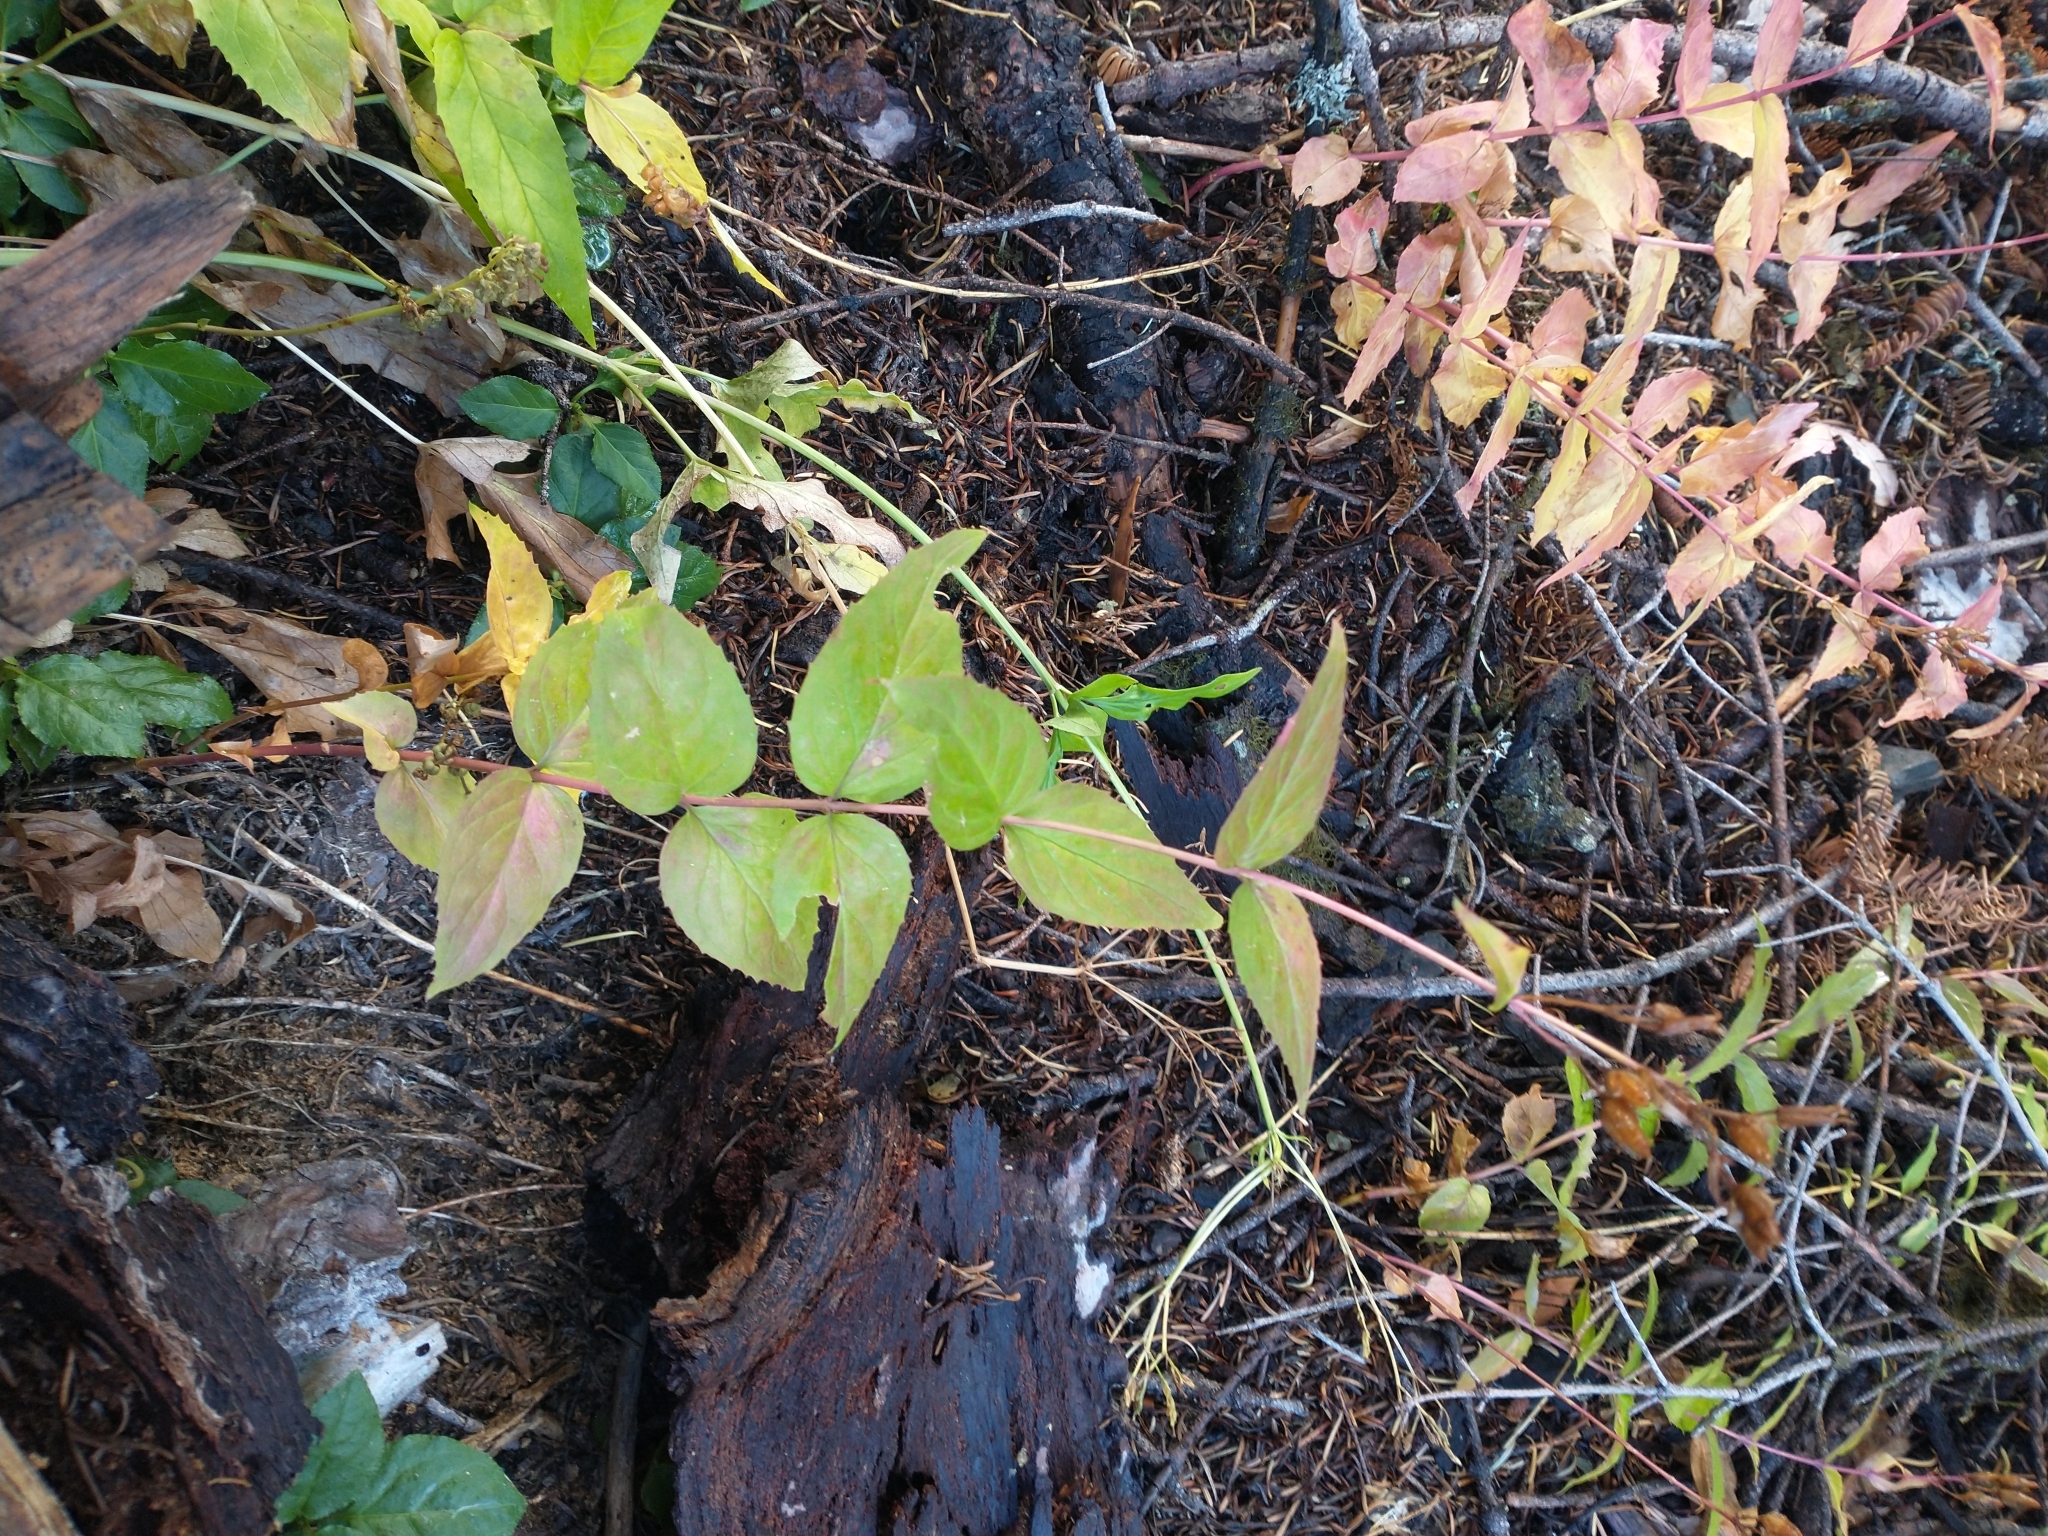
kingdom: Plantae
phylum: Tracheophyta
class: Magnoliopsida
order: Lamiales
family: Plantaginaceae
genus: Nothochelone
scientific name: Nothochelone nemorosa
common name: Woodland beardtongue
